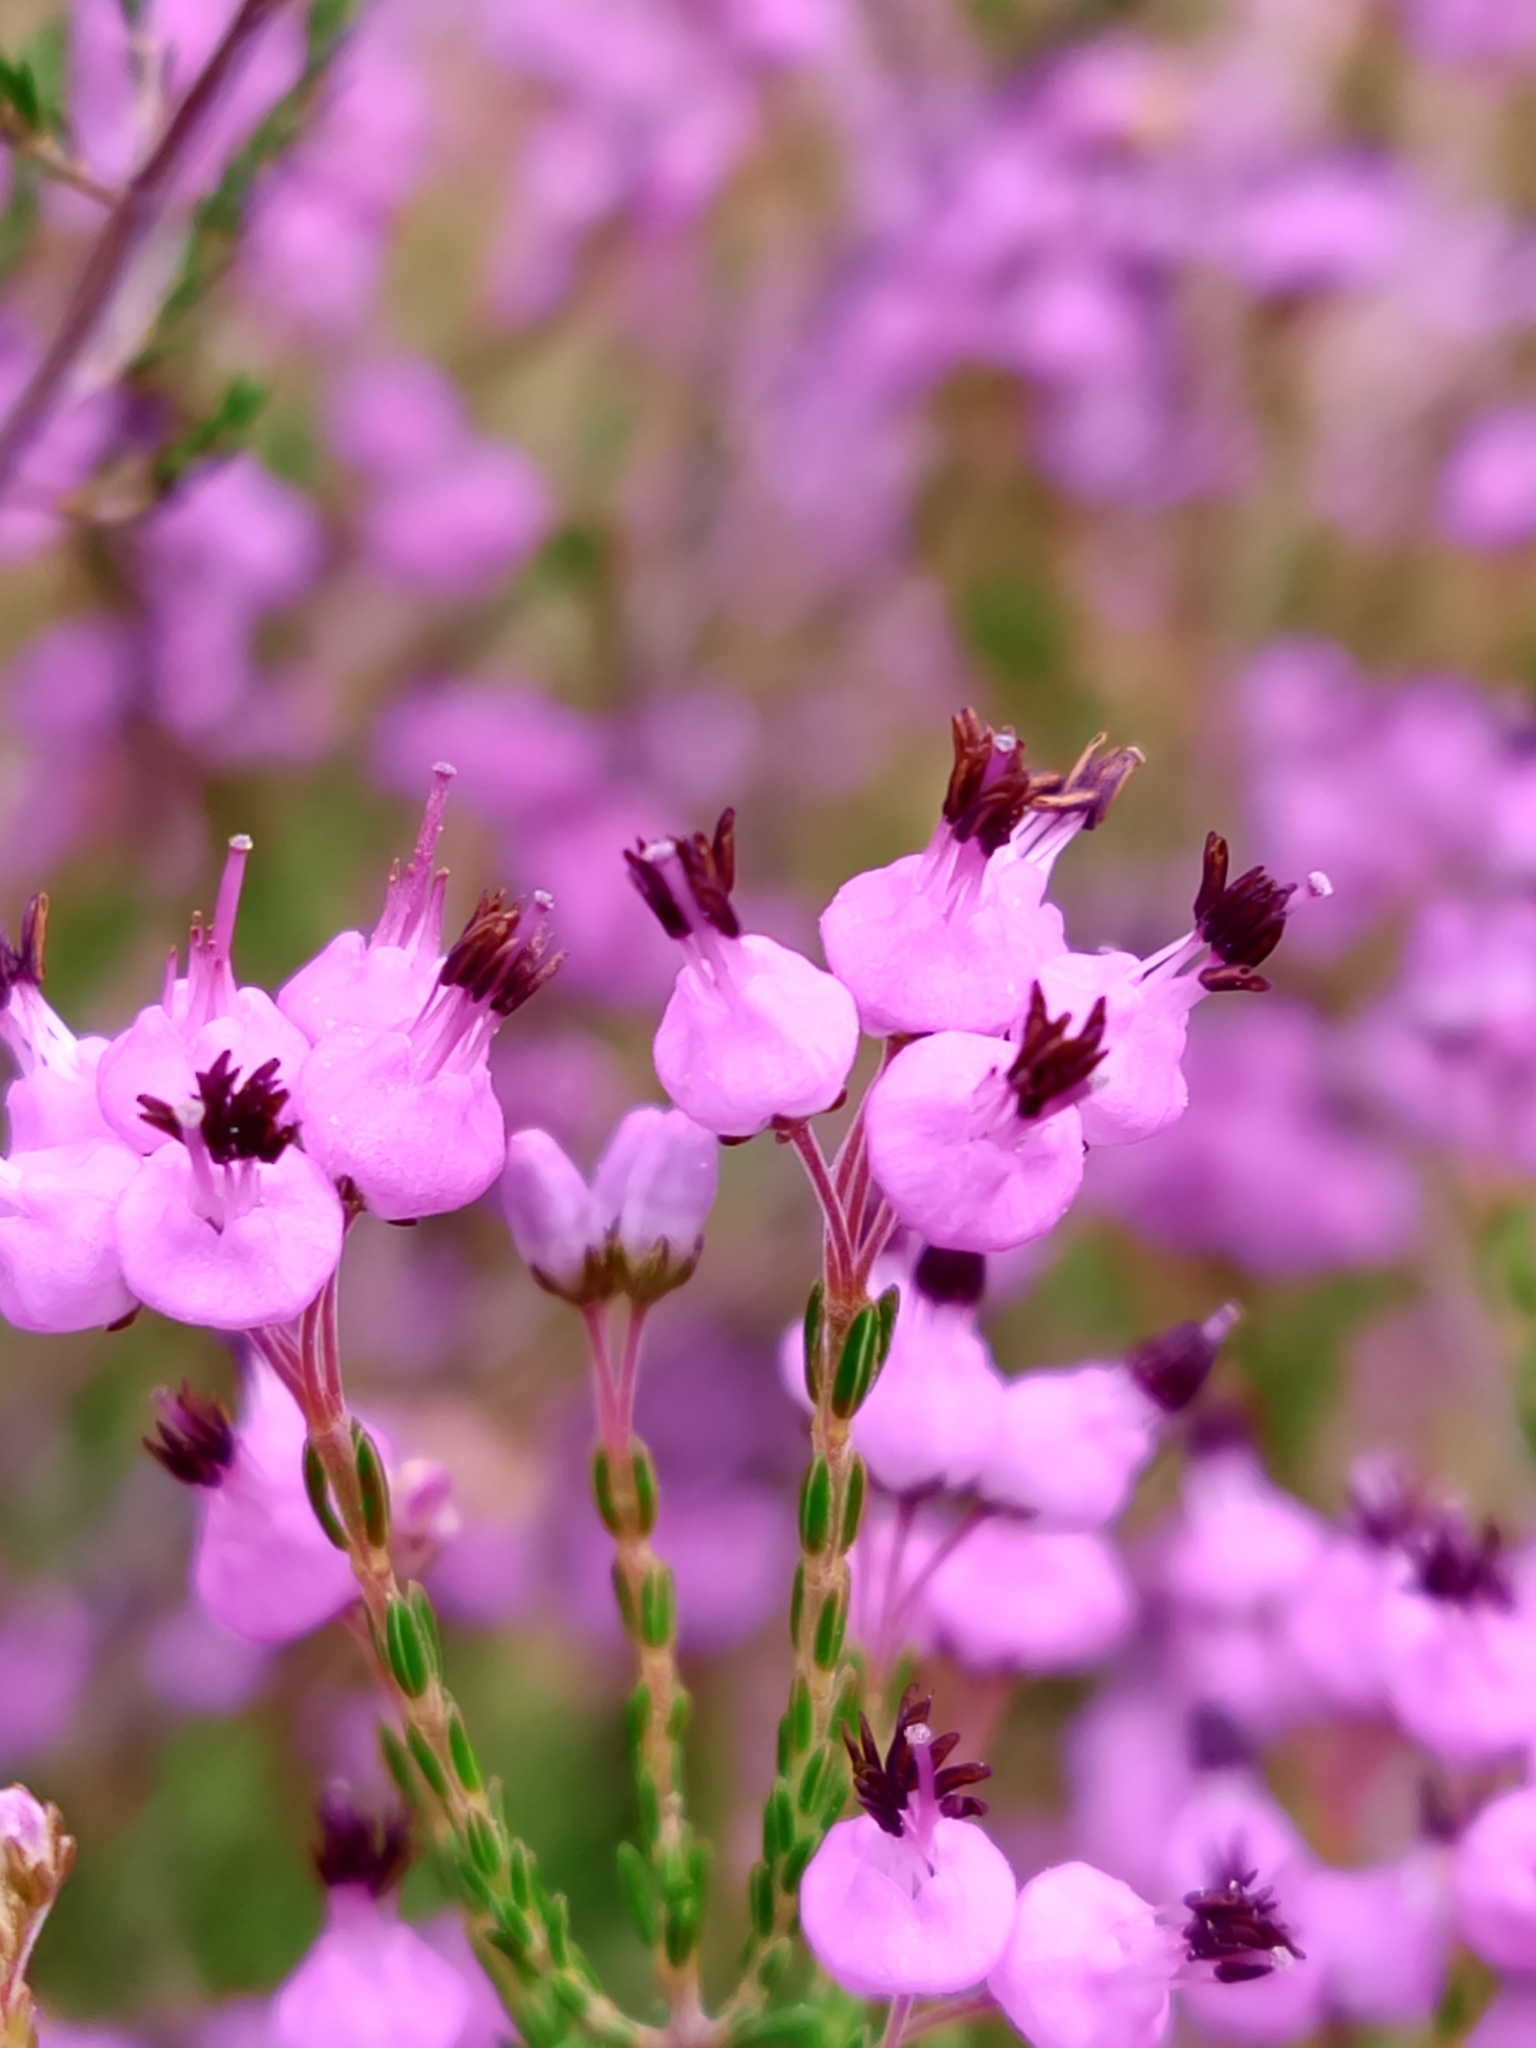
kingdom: Plantae
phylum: Tracheophyta
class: Magnoliopsida
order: Ericales
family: Ericaceae
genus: Erica
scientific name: Erica umbellata
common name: Dwarf spanish heath
